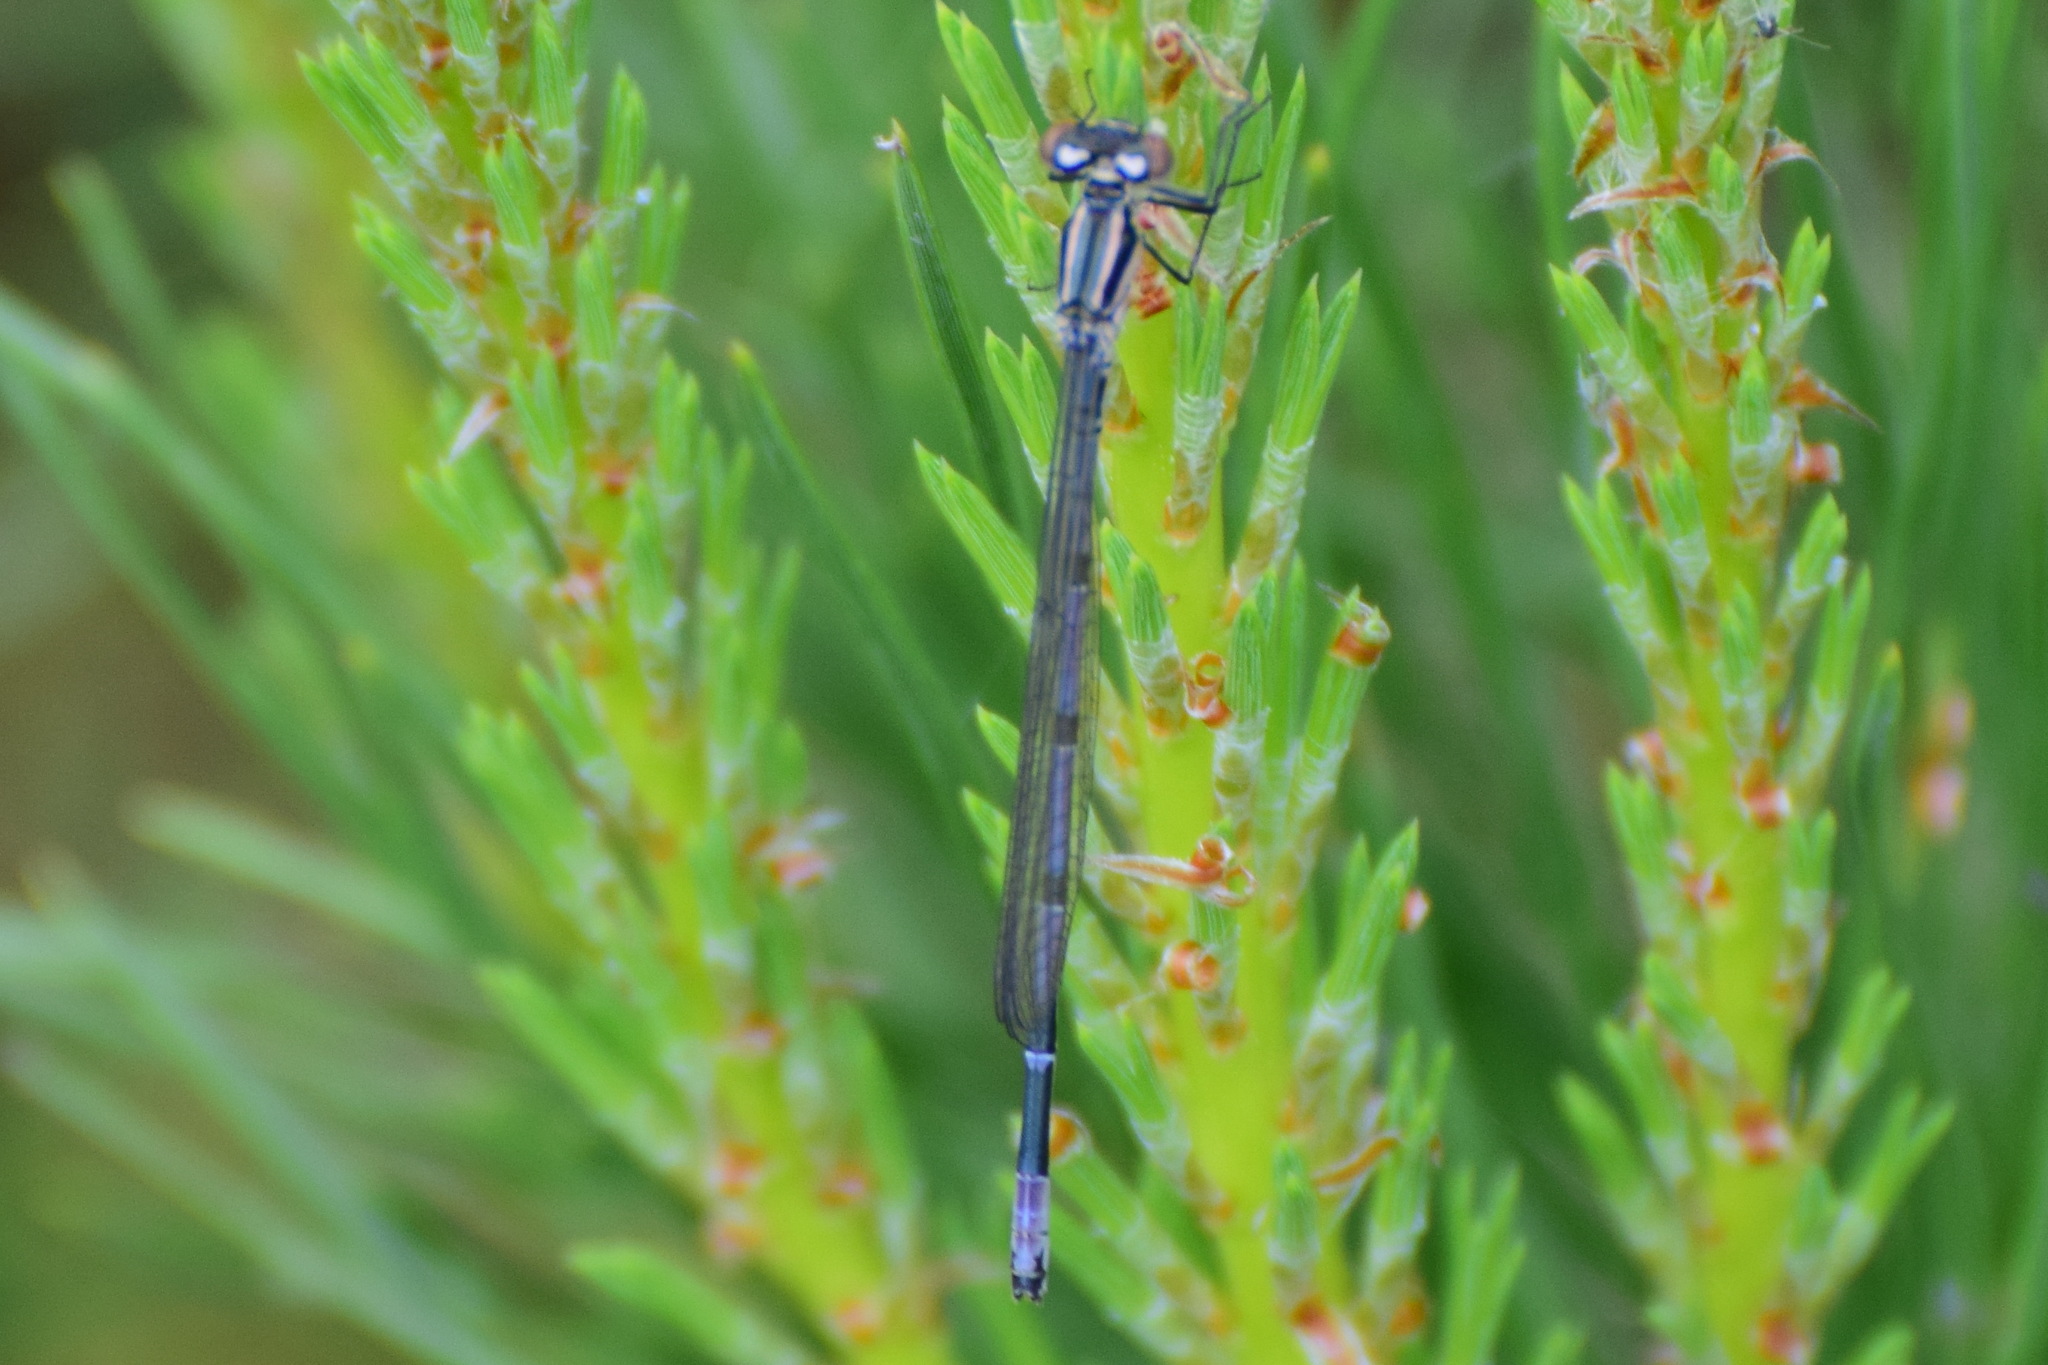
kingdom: Animalia
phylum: Arthropoda
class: Insecta
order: Odonata
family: Coenagrionidae
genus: Coenagrion
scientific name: Coenagrion puella
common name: Azure damselfly
